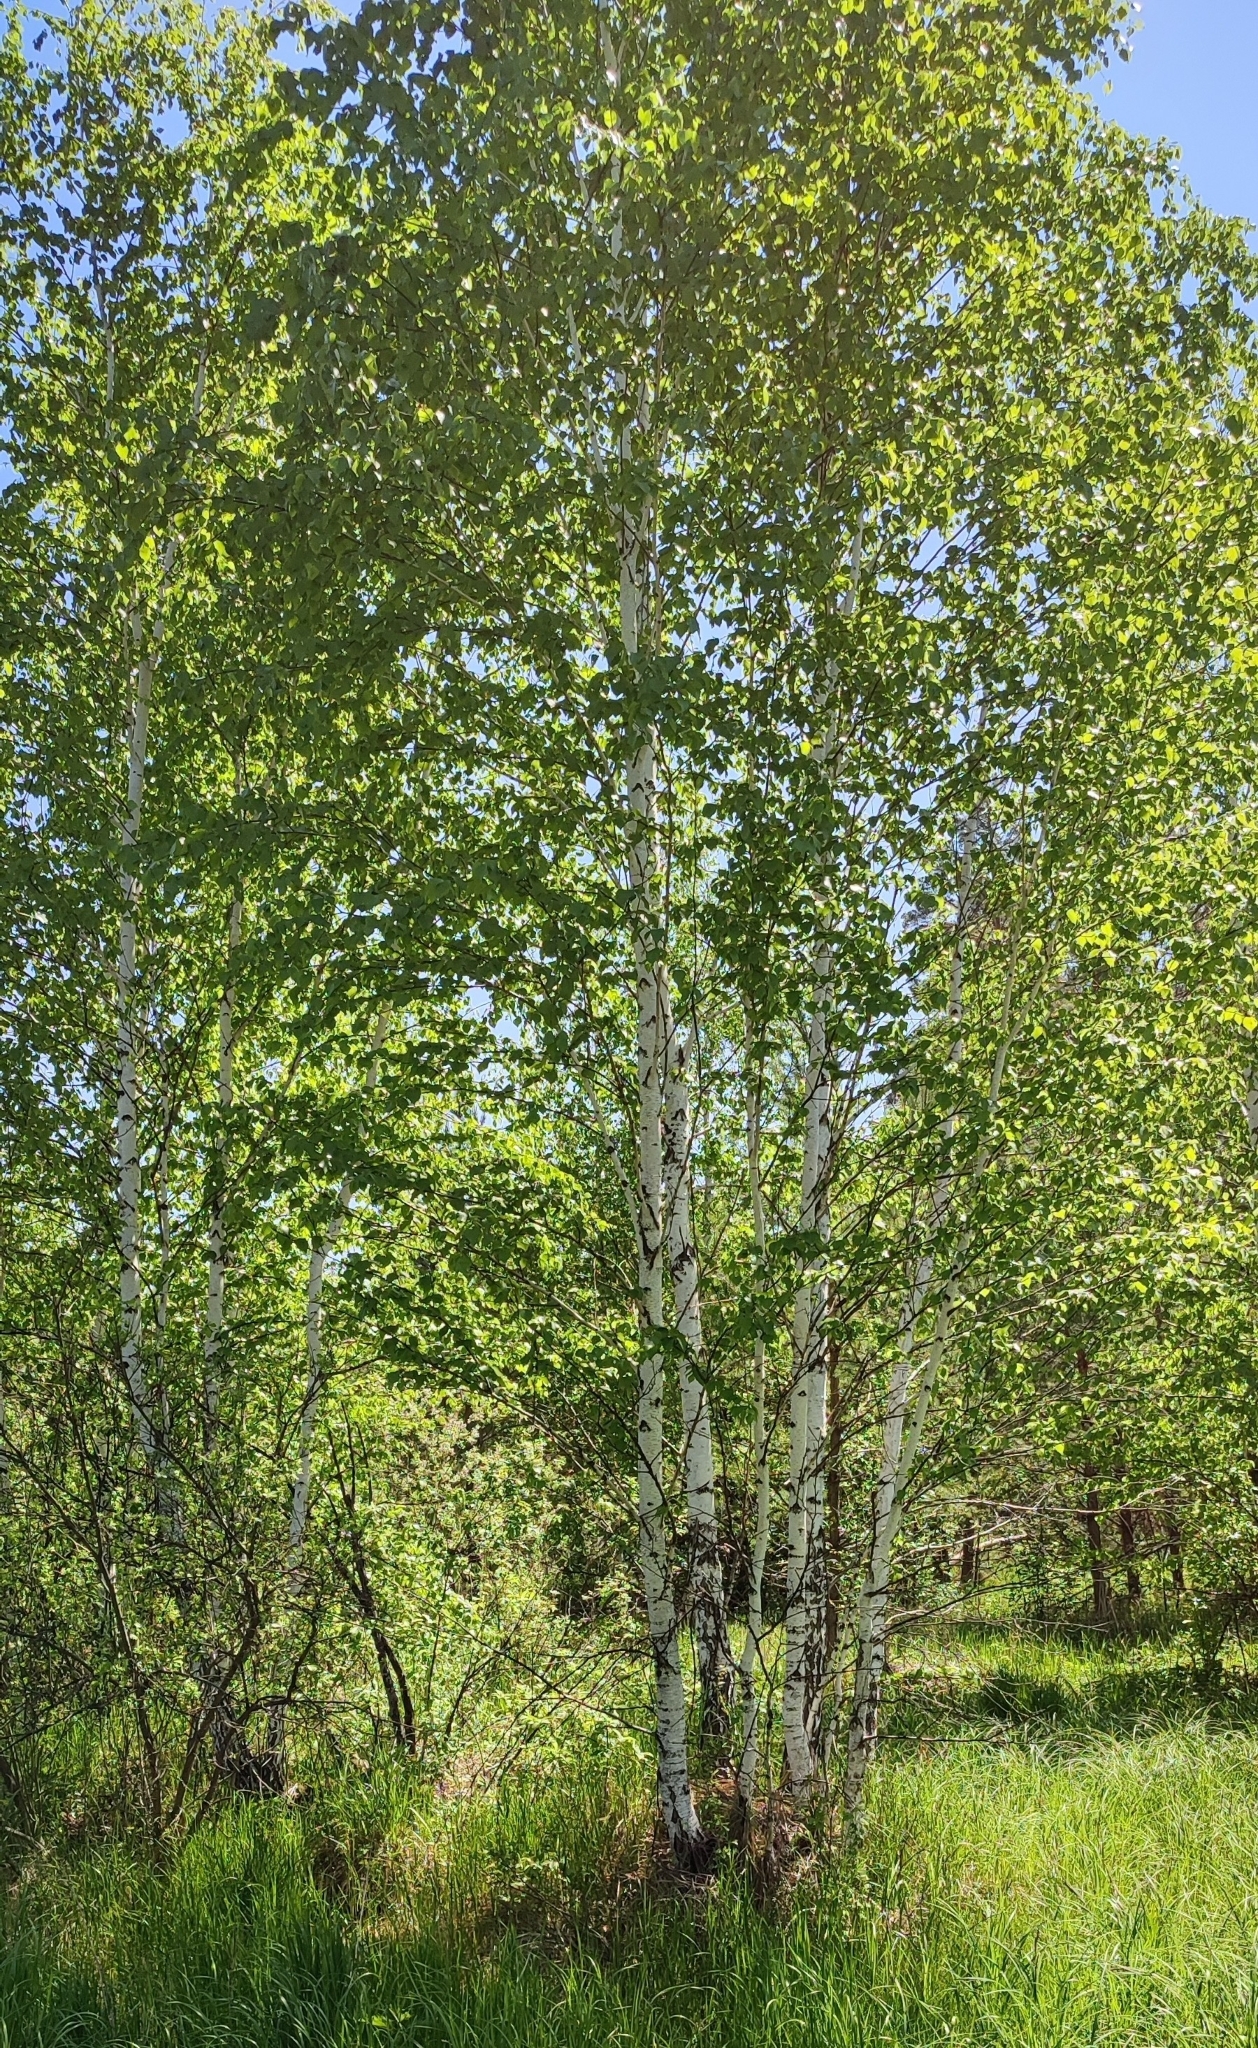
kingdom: Plantae
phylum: Tracheophyta
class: Magnoliopsida
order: Fagales
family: Betulaceae
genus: Betula
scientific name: Betula pubescens
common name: Downy birch
